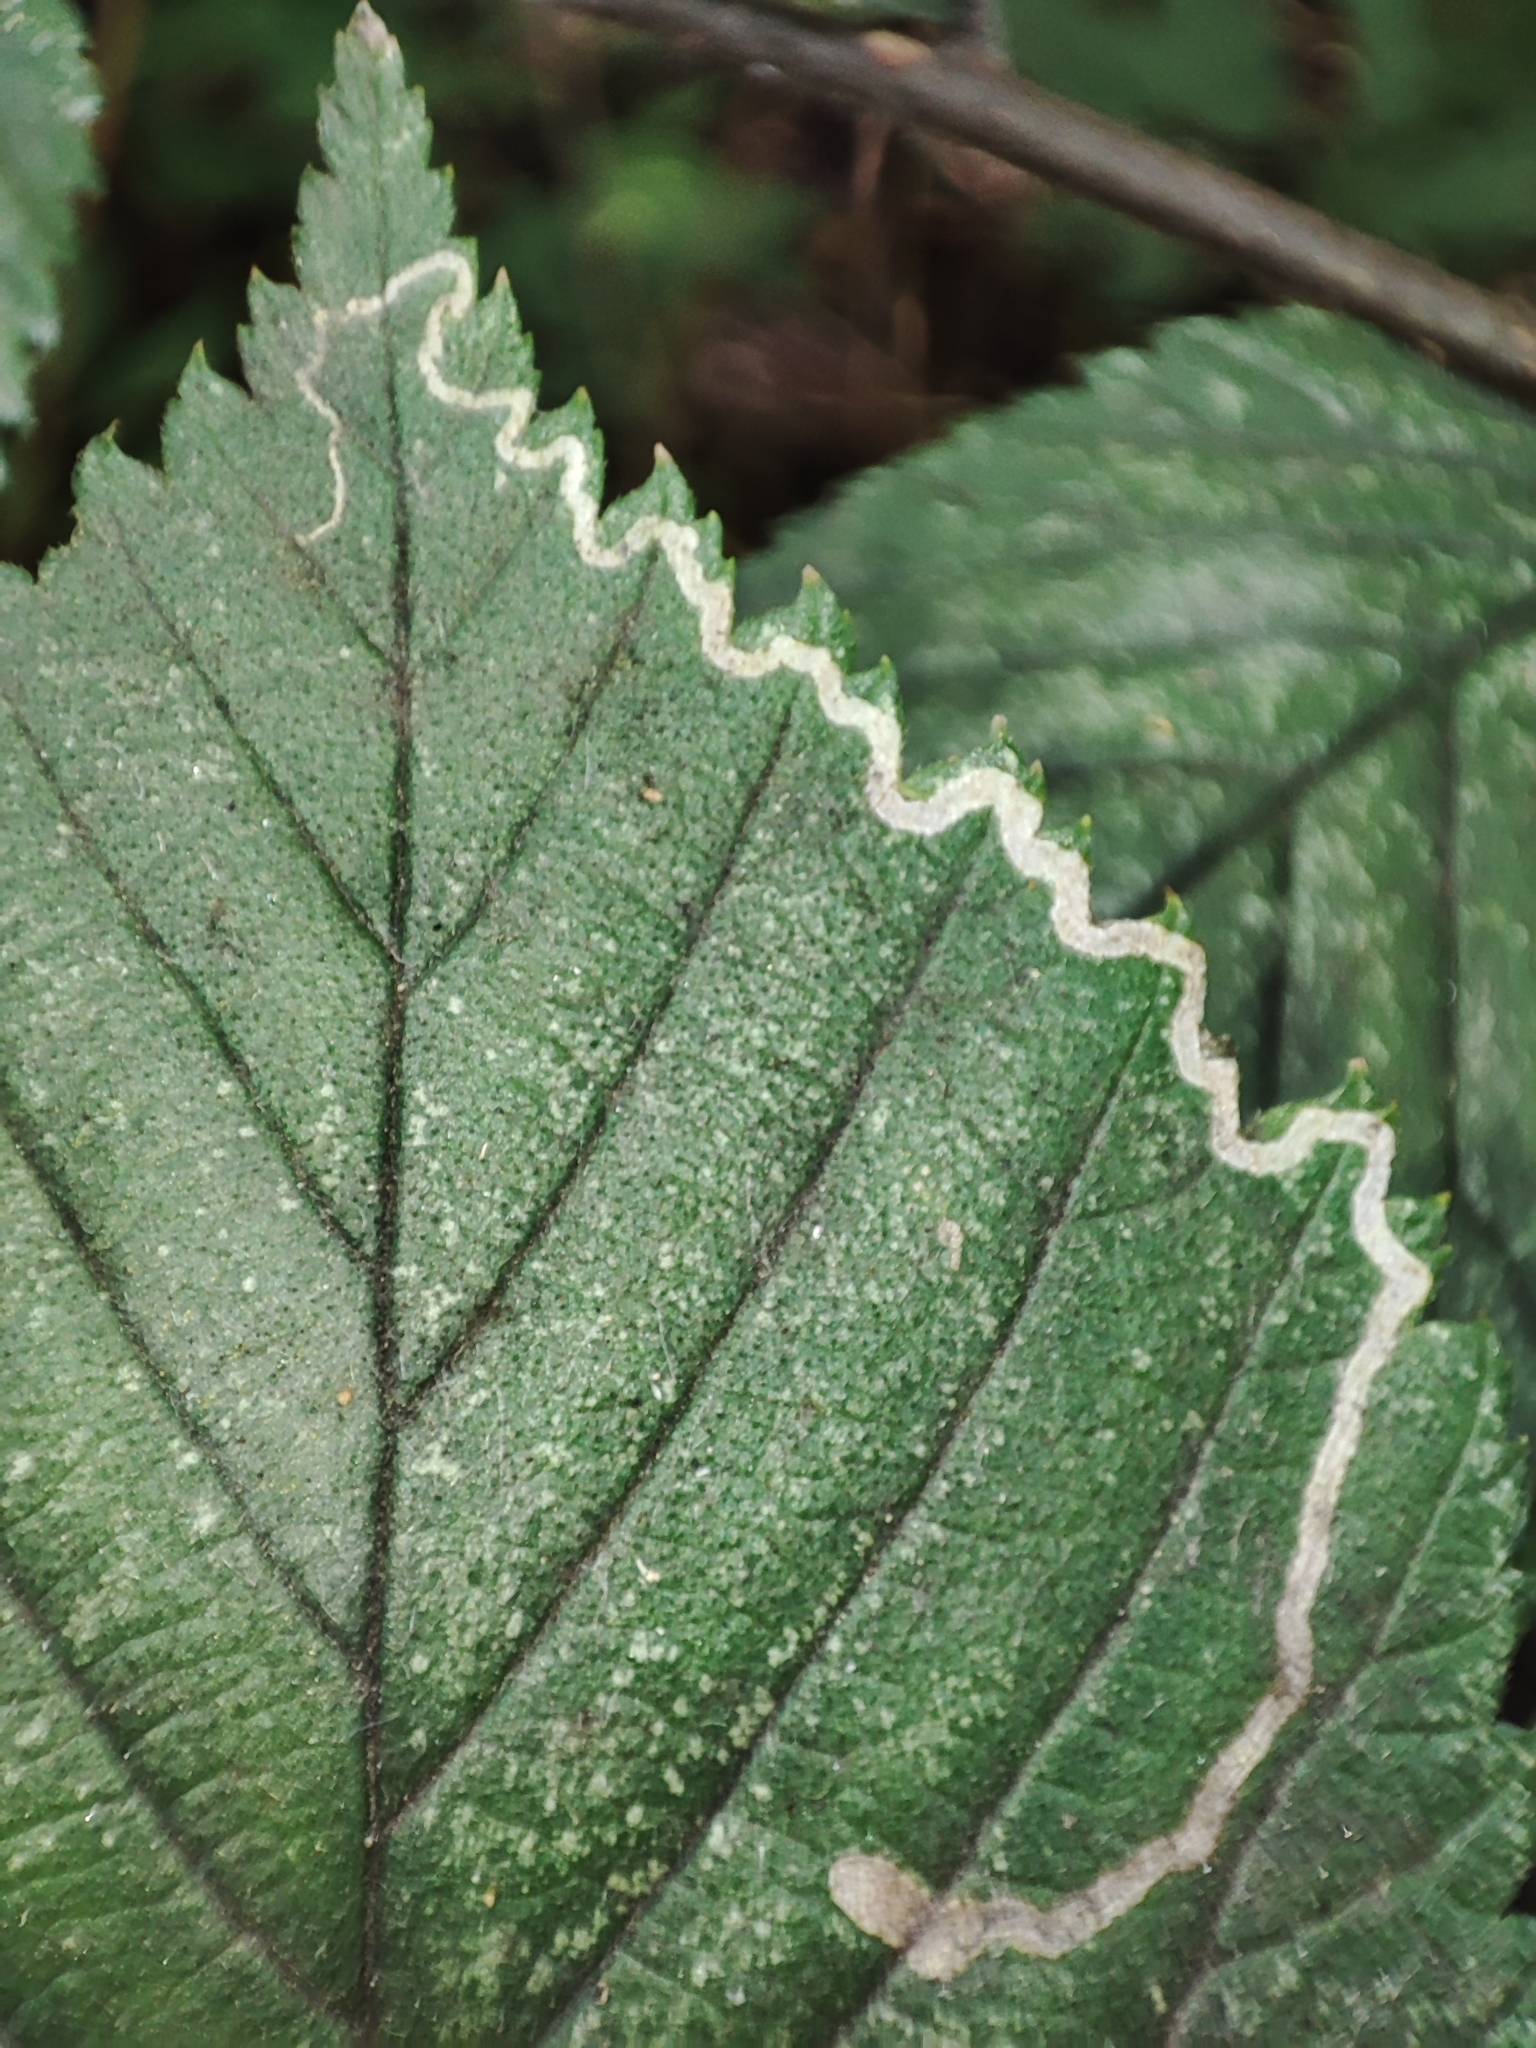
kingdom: Plantae
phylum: Tracheophyta
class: Magnoliopsida
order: Rosales
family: Ulmaceae
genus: Ulmus
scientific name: Ulmus glabra
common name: Wych elm
